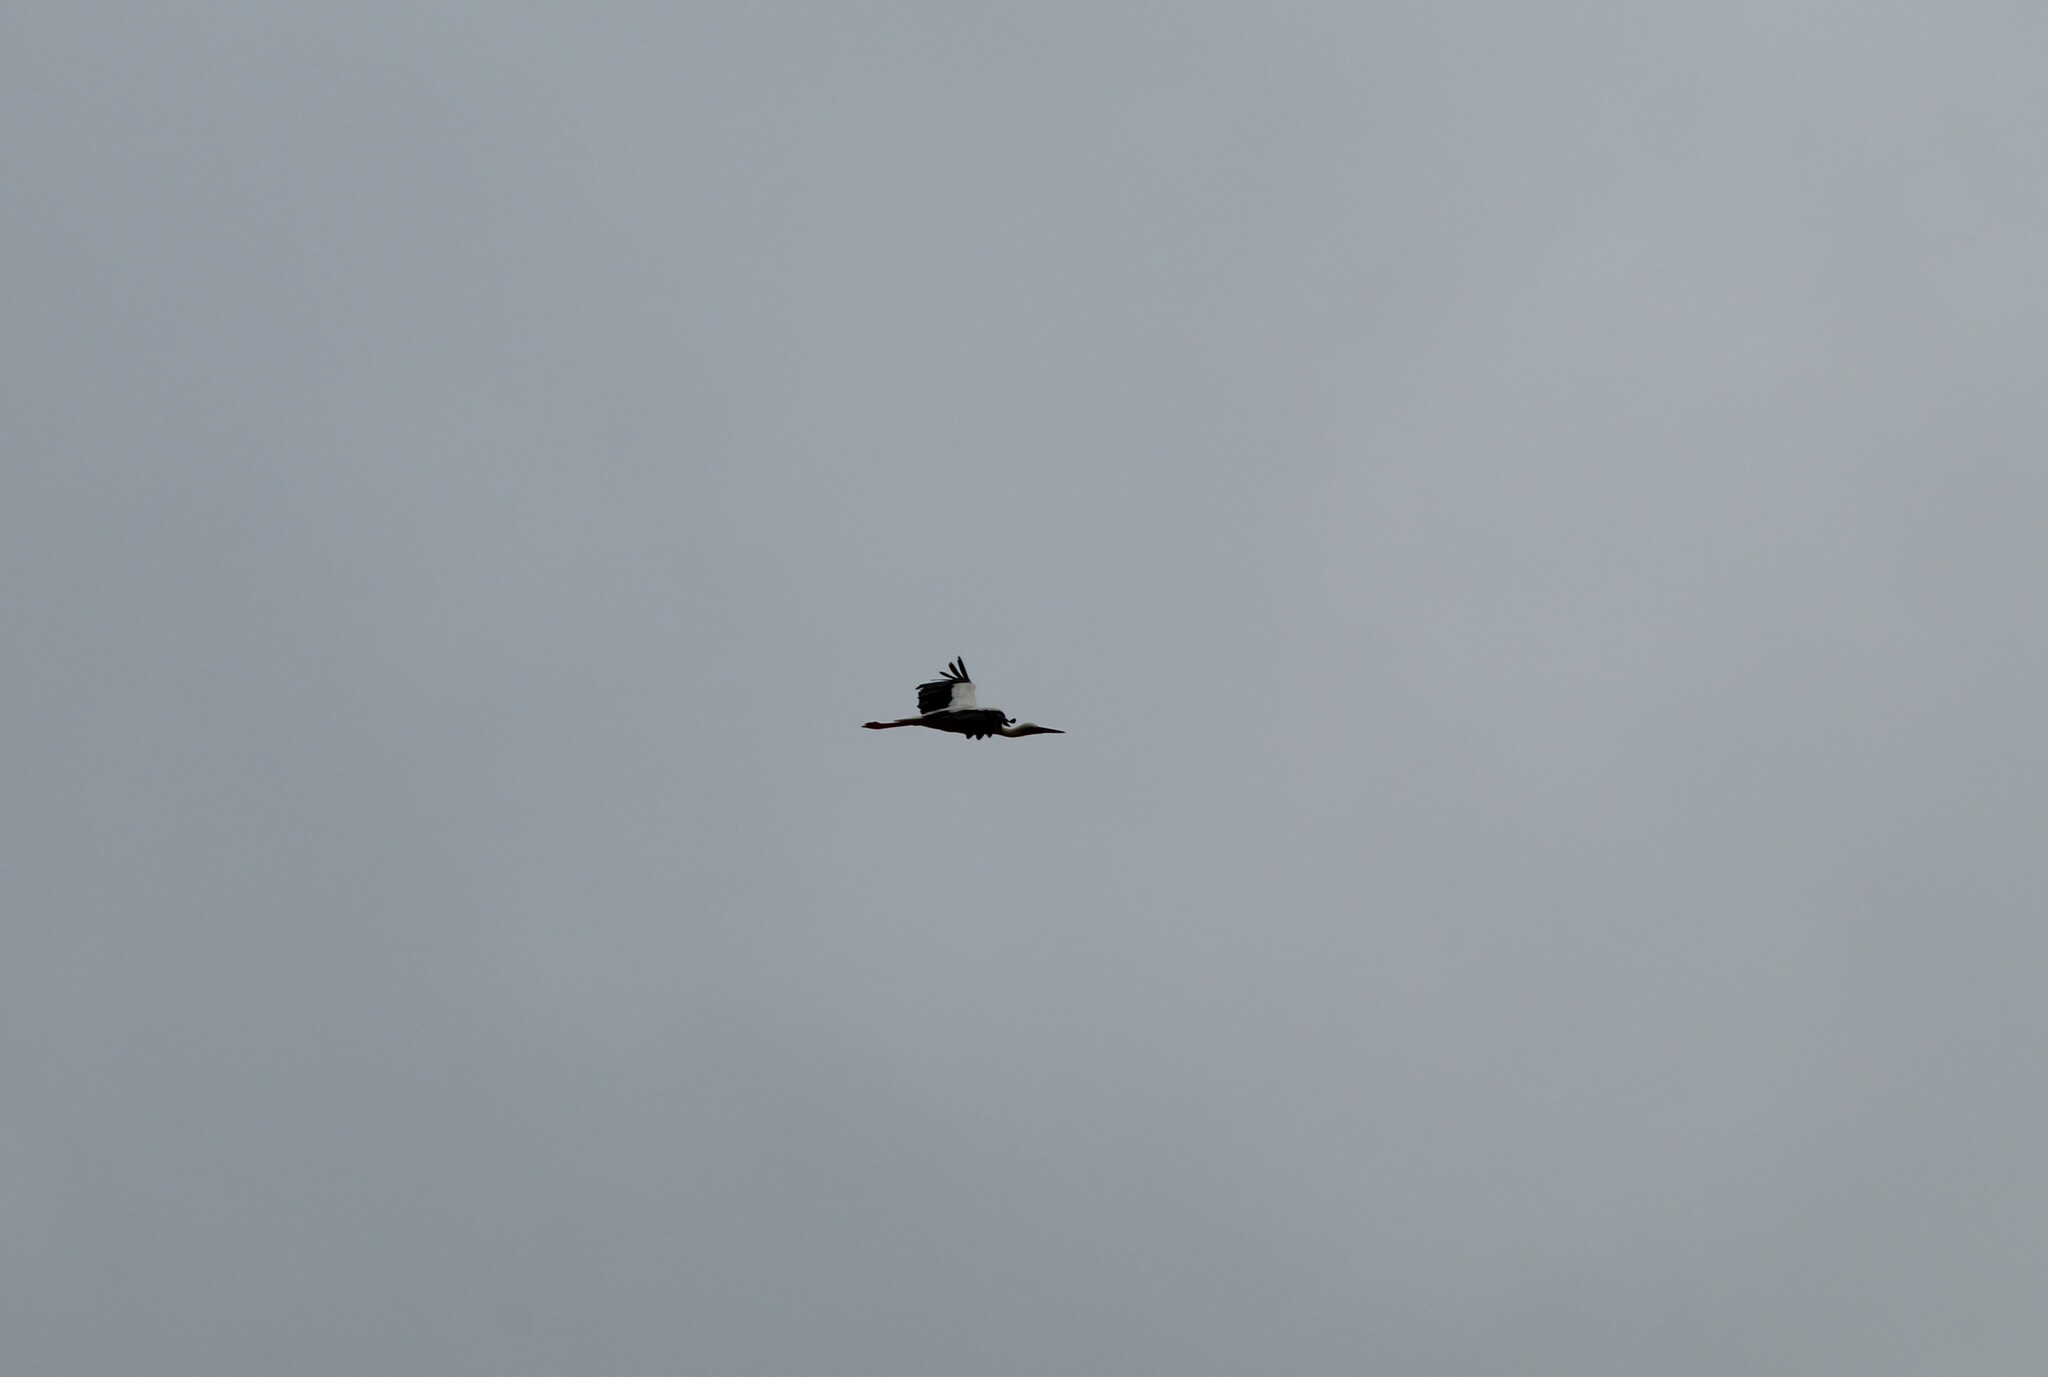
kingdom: Animalia
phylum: Chordata
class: Aves
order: Ciconiiformes
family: Ciconiidae
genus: Ciconia
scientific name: Ciconia ciconia
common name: White stork
